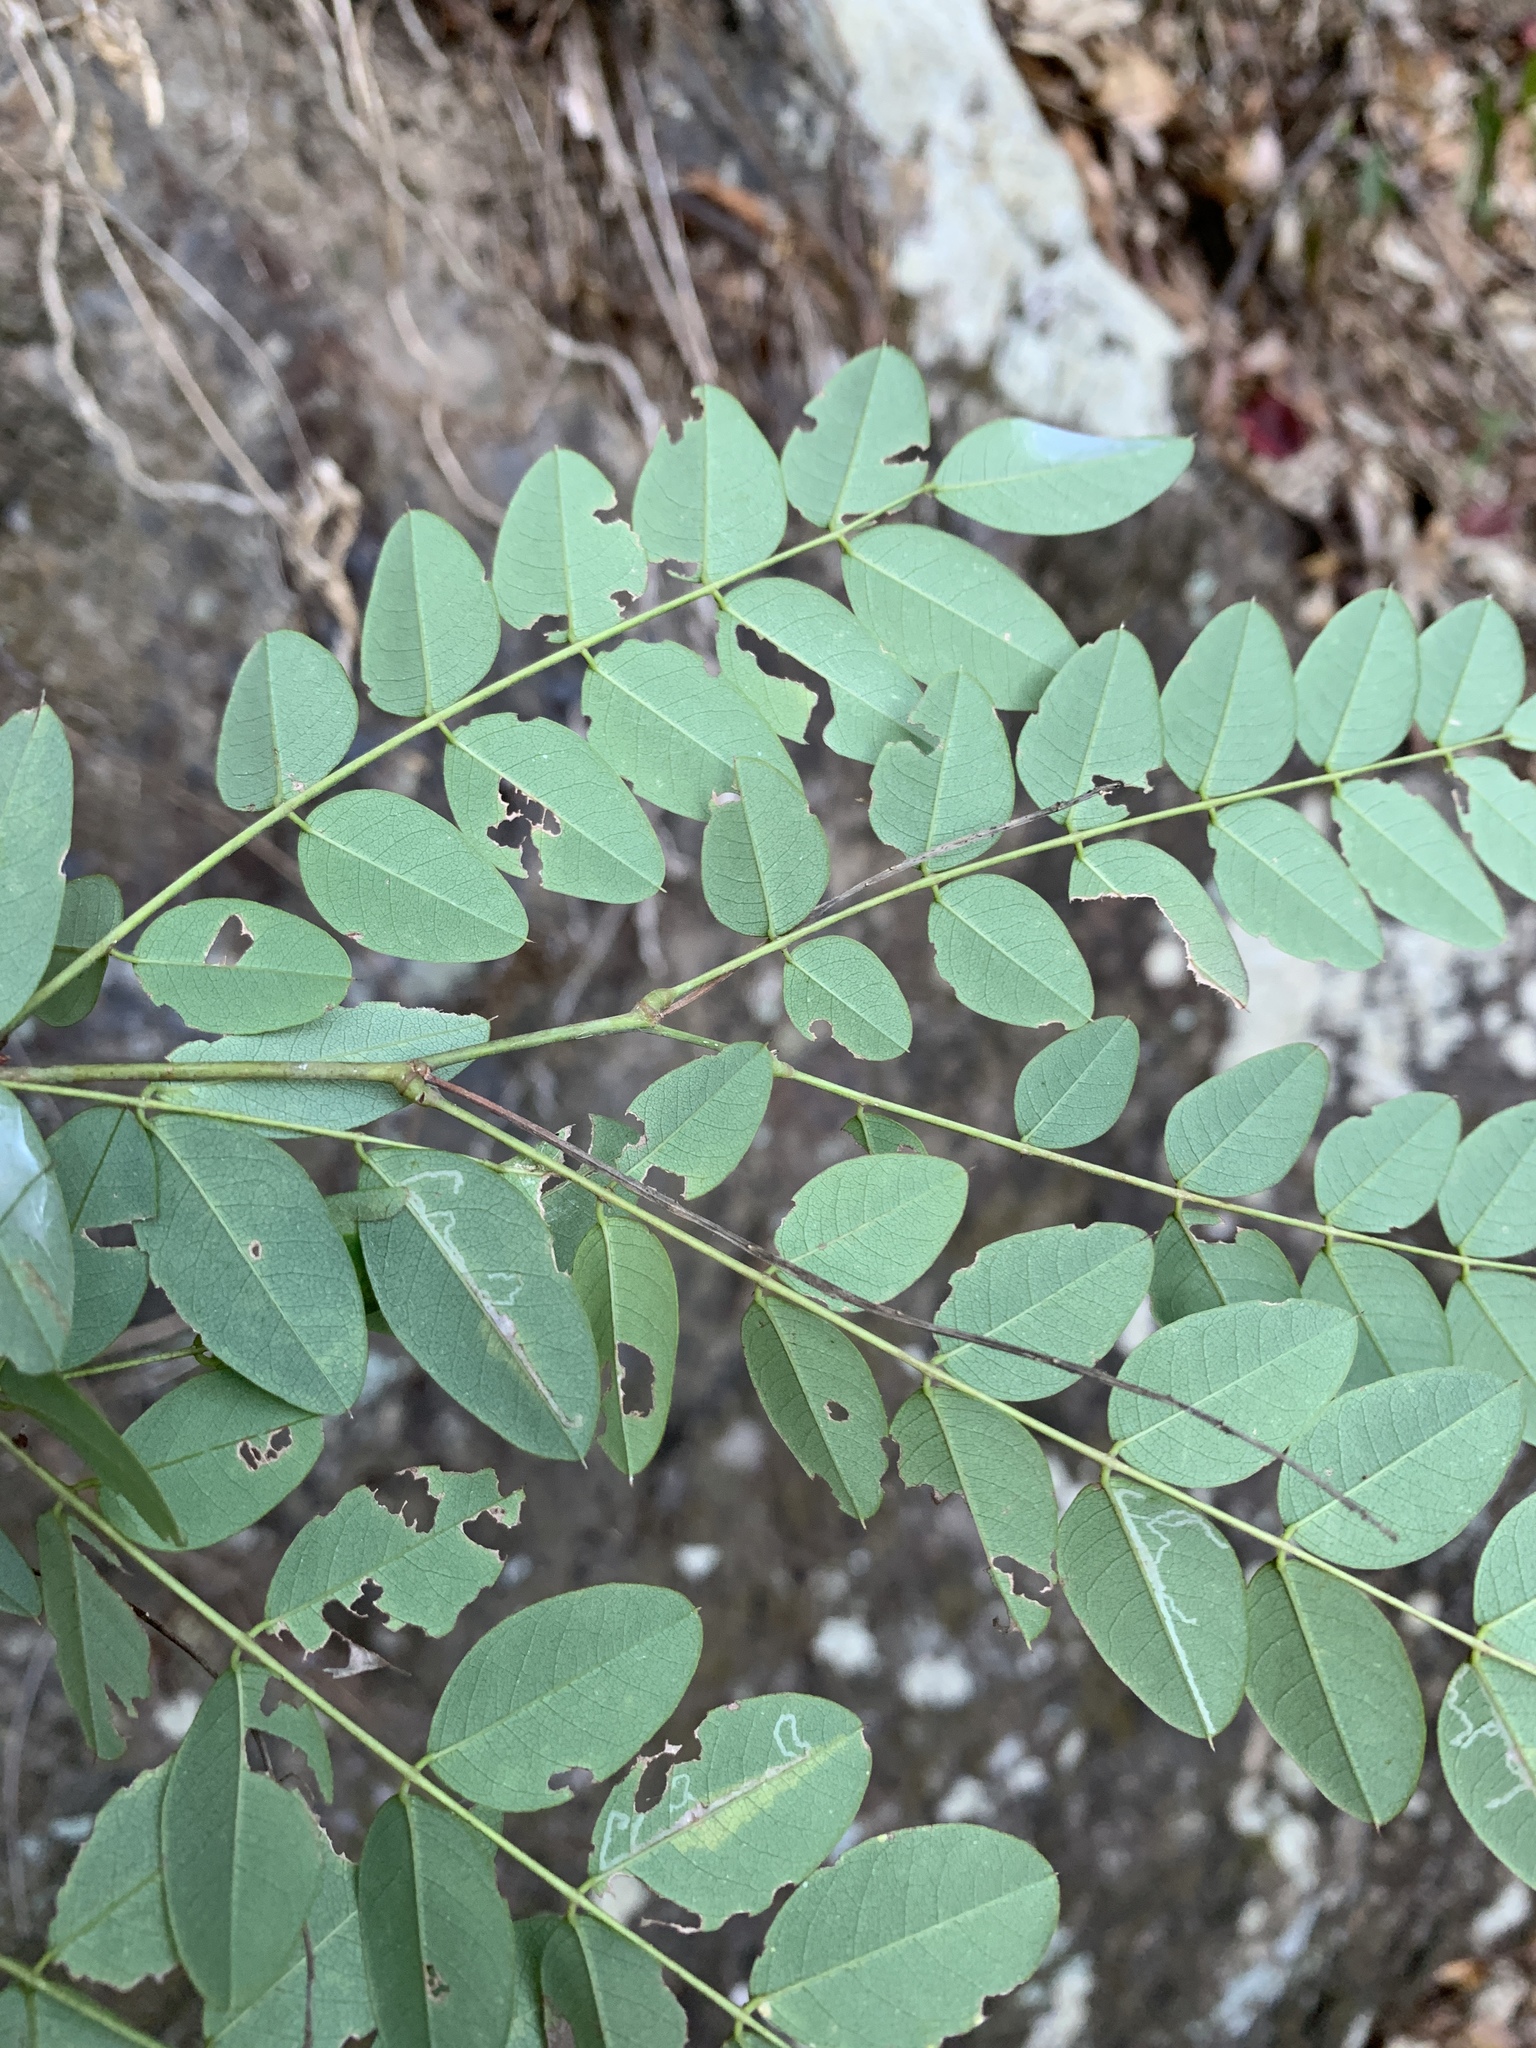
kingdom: Plantae
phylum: Tracheophyta
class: Magnoliopsida
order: Fabales
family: Fabaceae
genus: Indigofera
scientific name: Indigofera venulosa
